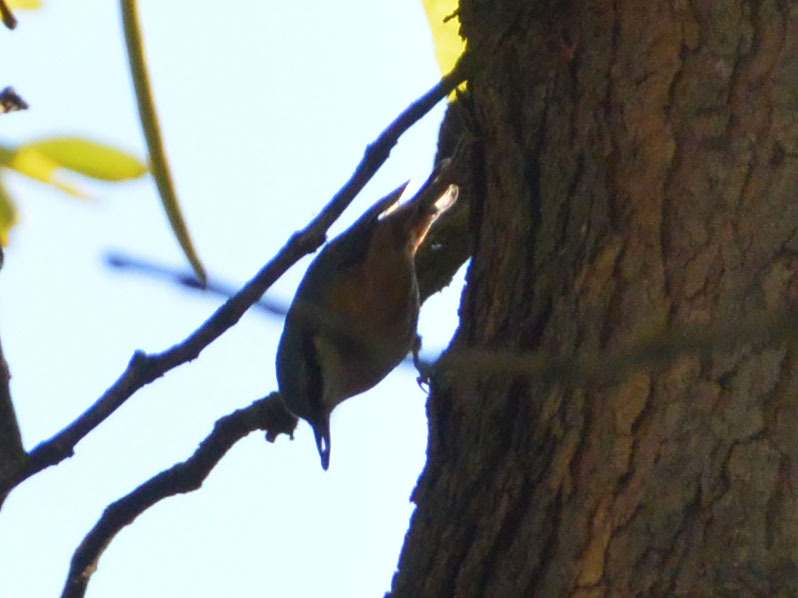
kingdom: Animalia
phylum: Chordata
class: Aves
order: Passeriformes
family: Sittidae
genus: Sitta
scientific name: Sitta europaea
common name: Eurasian nuthatch
